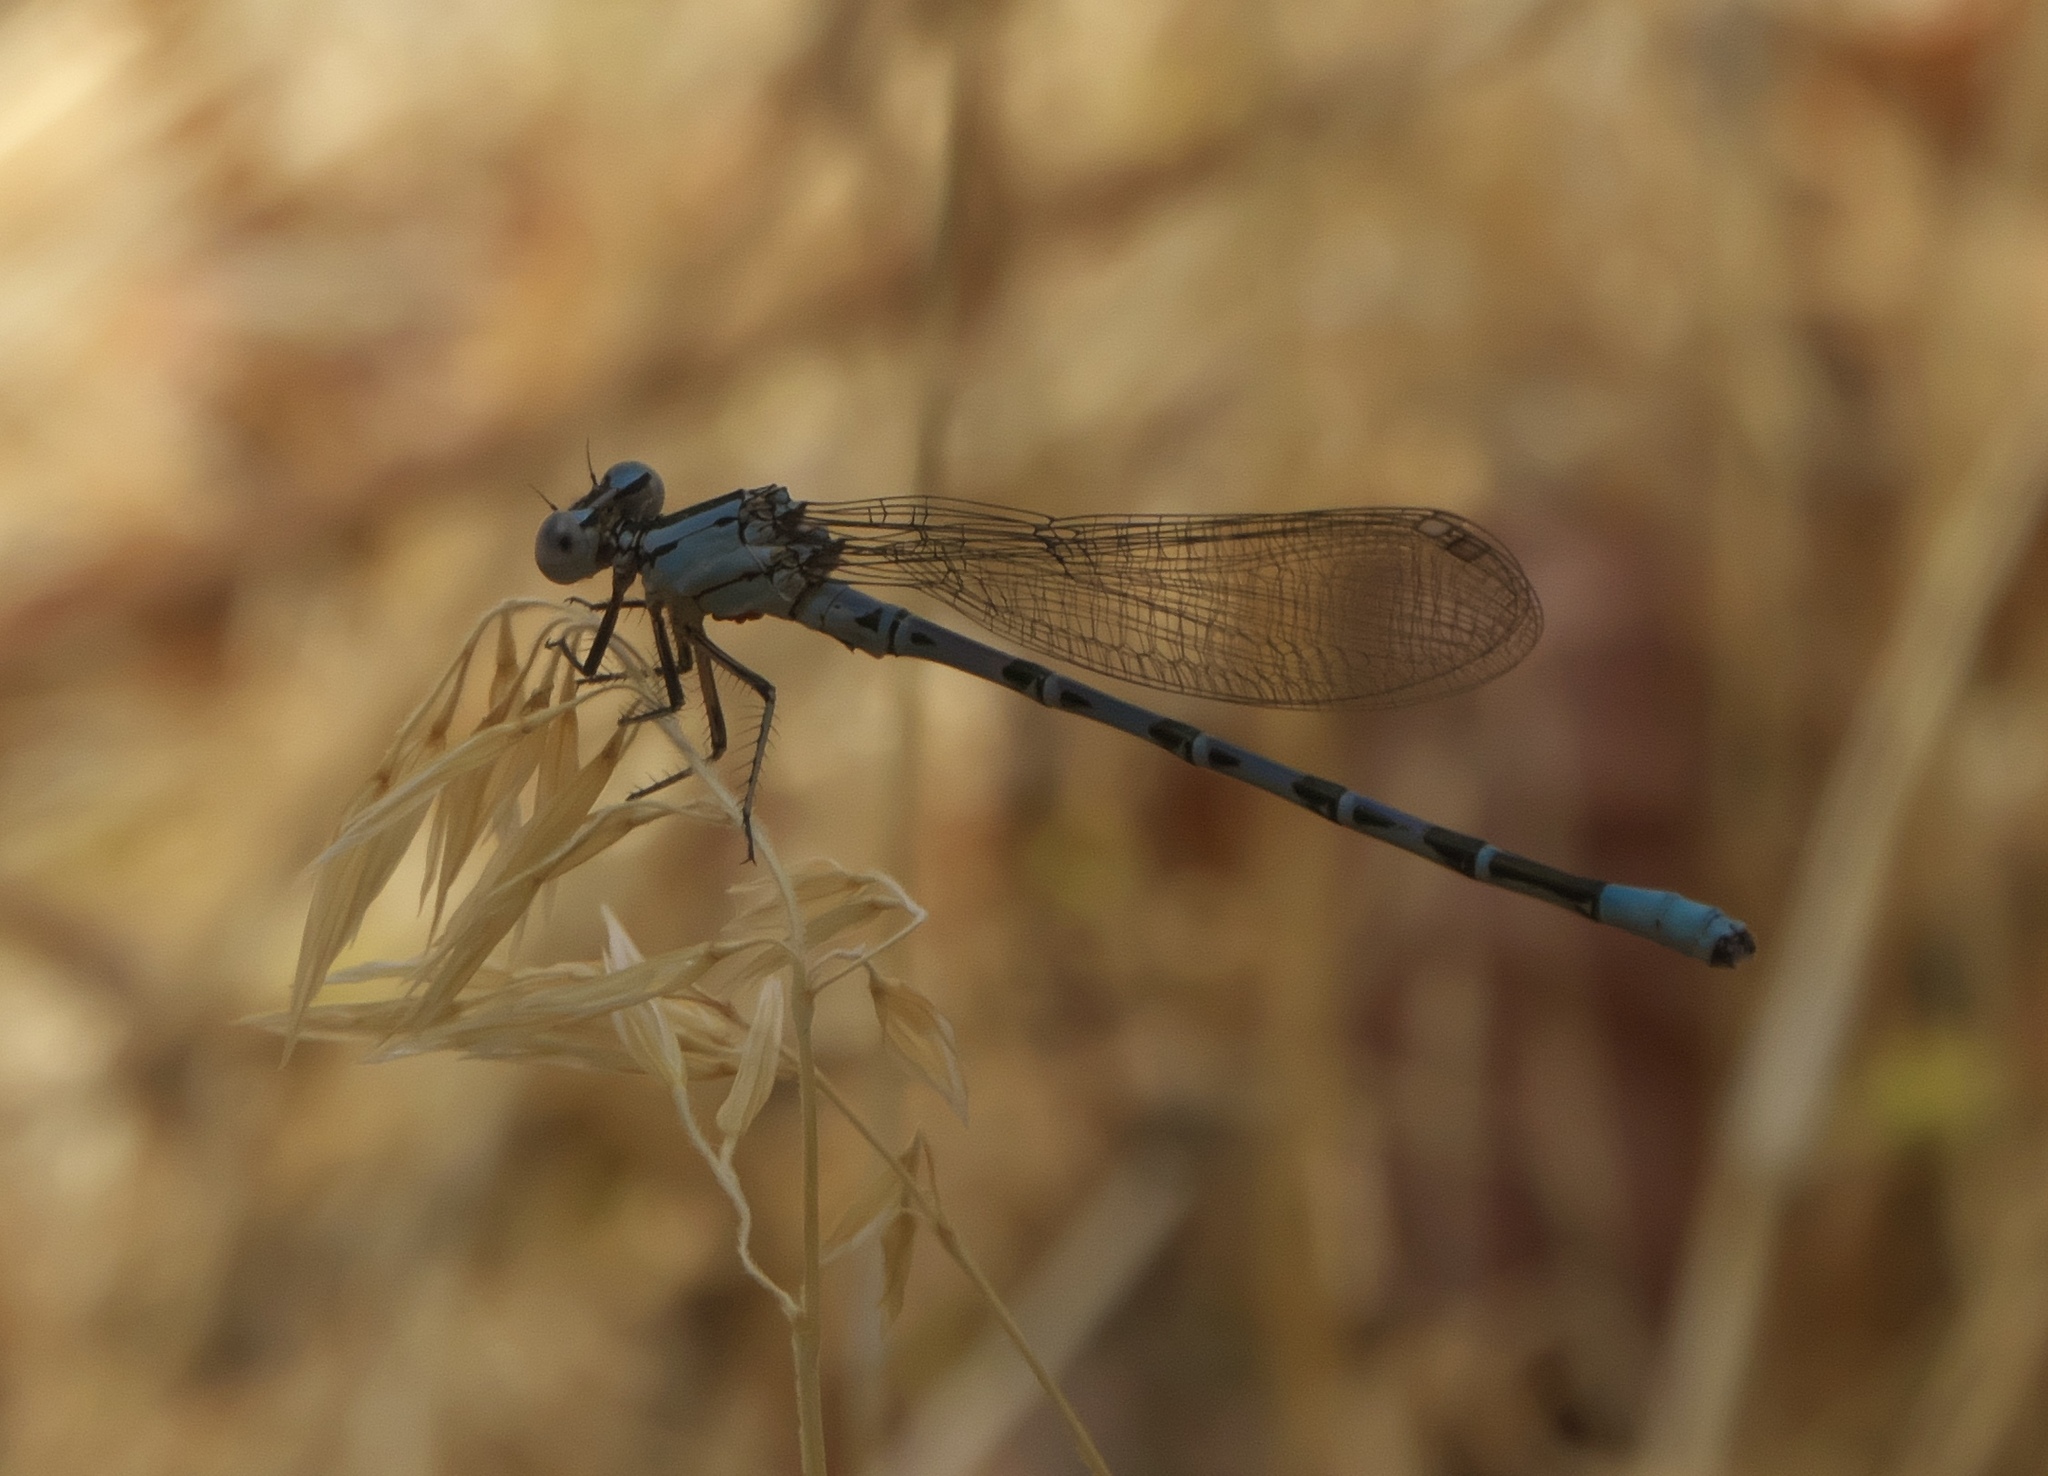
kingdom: Animalia
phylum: Arthropoda
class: Insecta
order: Odonata
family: Coenagrionidae
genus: Argia
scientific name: Argia vivida
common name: Vivid dancer
